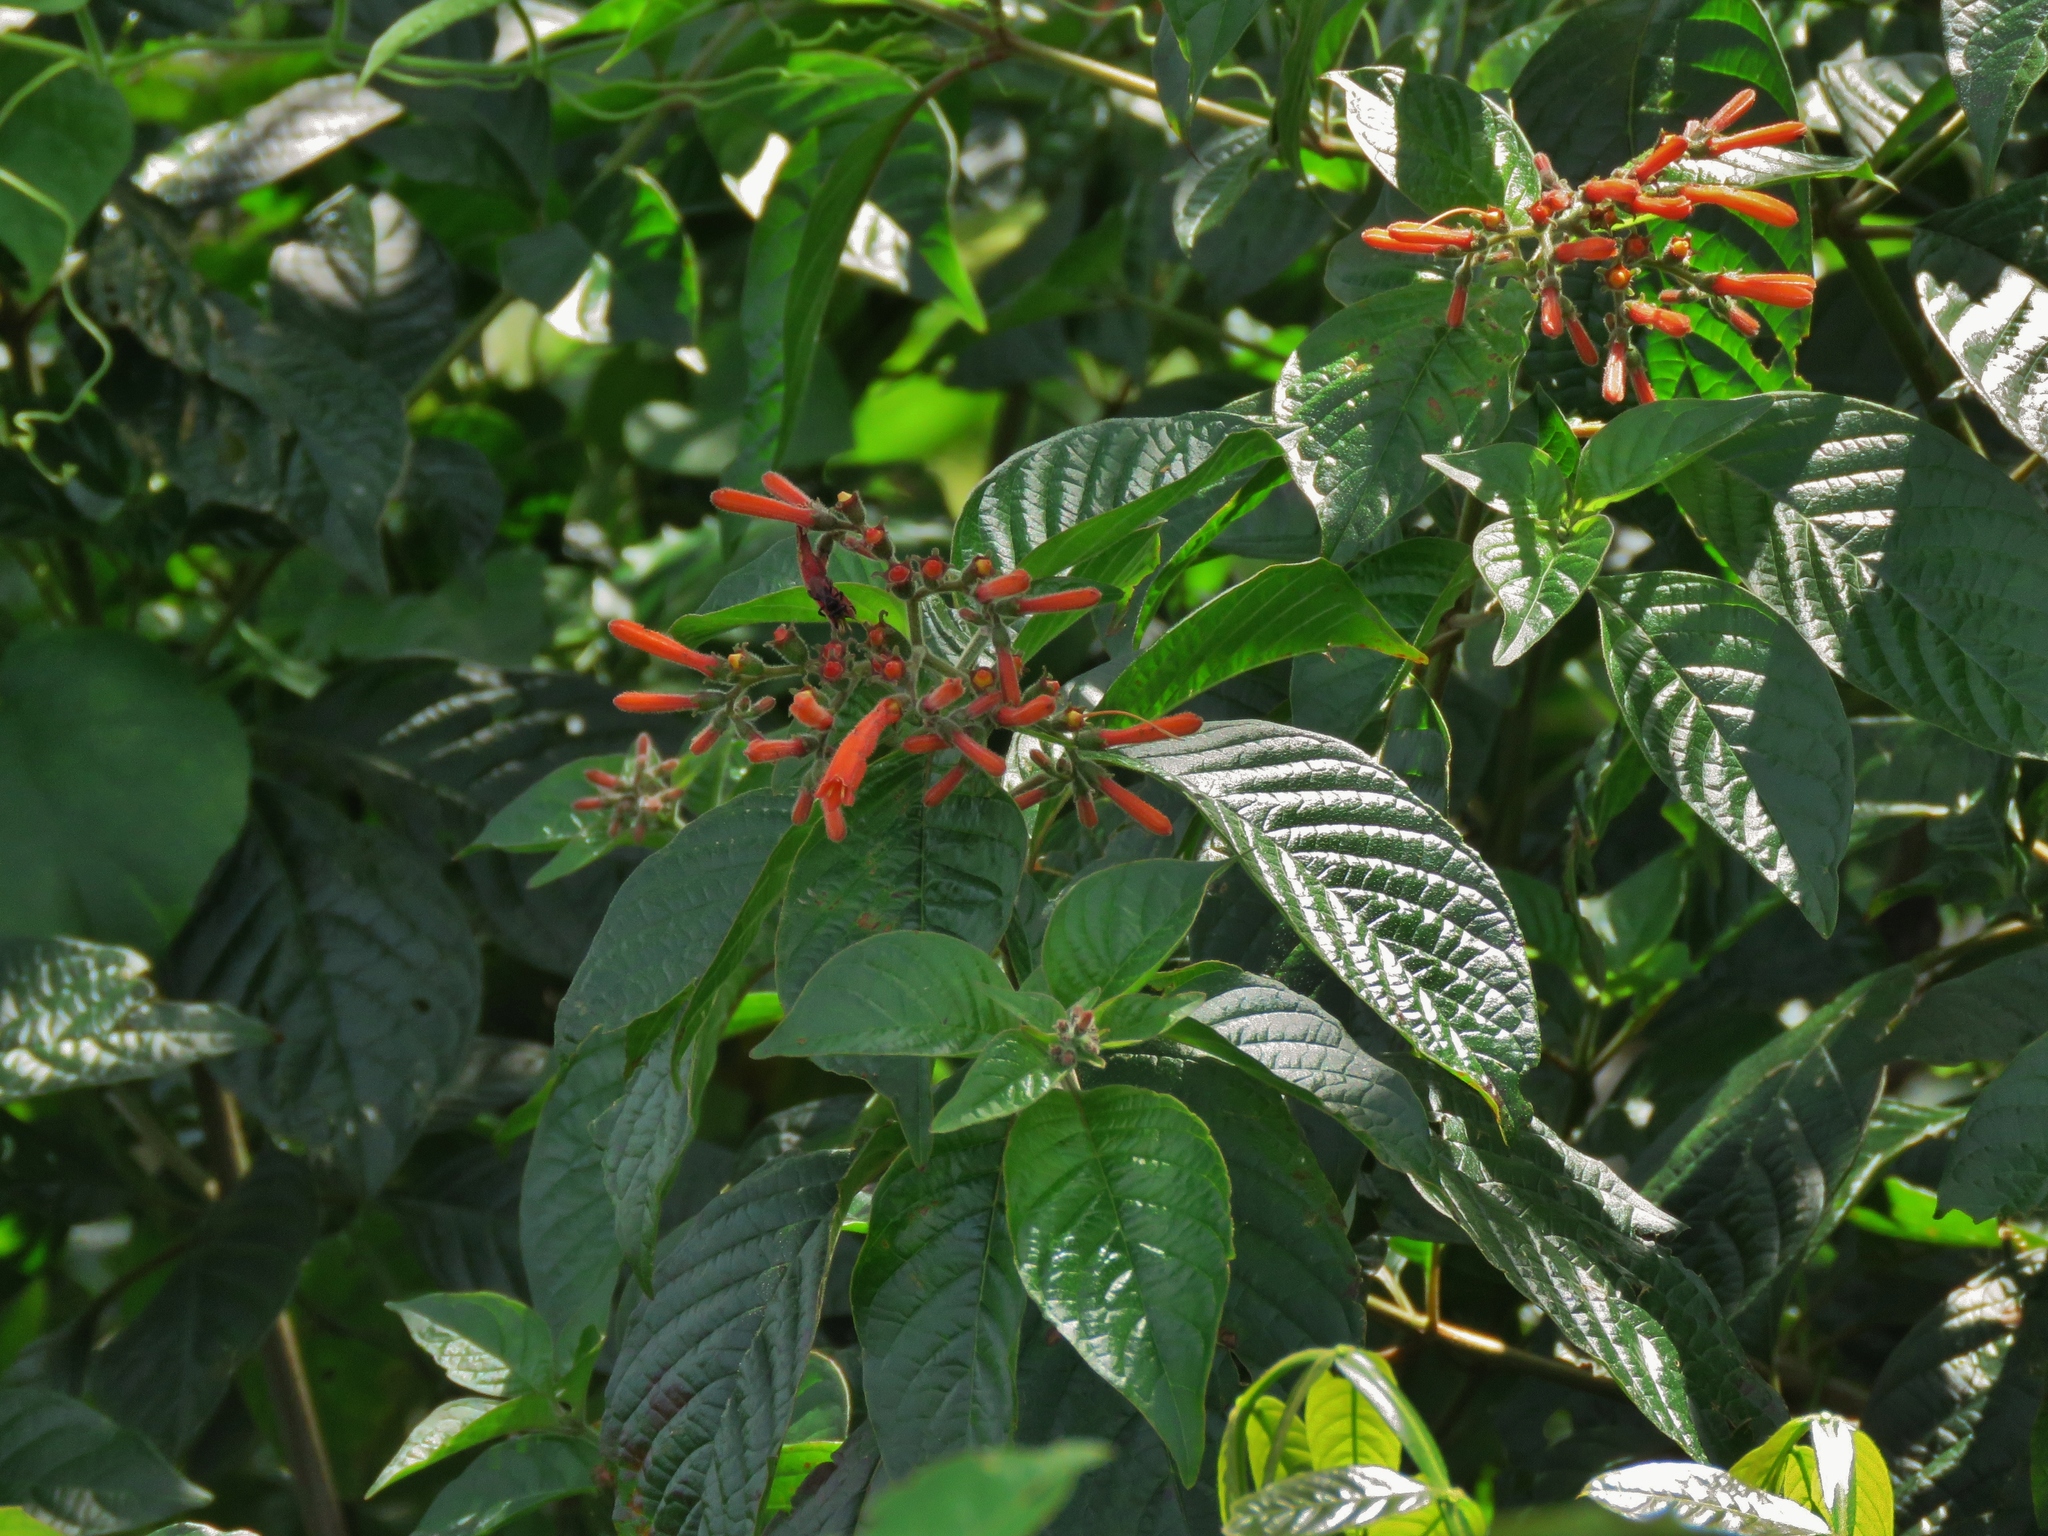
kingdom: Plantae
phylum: Tracheophyta
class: Magnoliopsida
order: Gentianales
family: Rubiaceae
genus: Hamelia
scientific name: Hamelia patens
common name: Redhead
